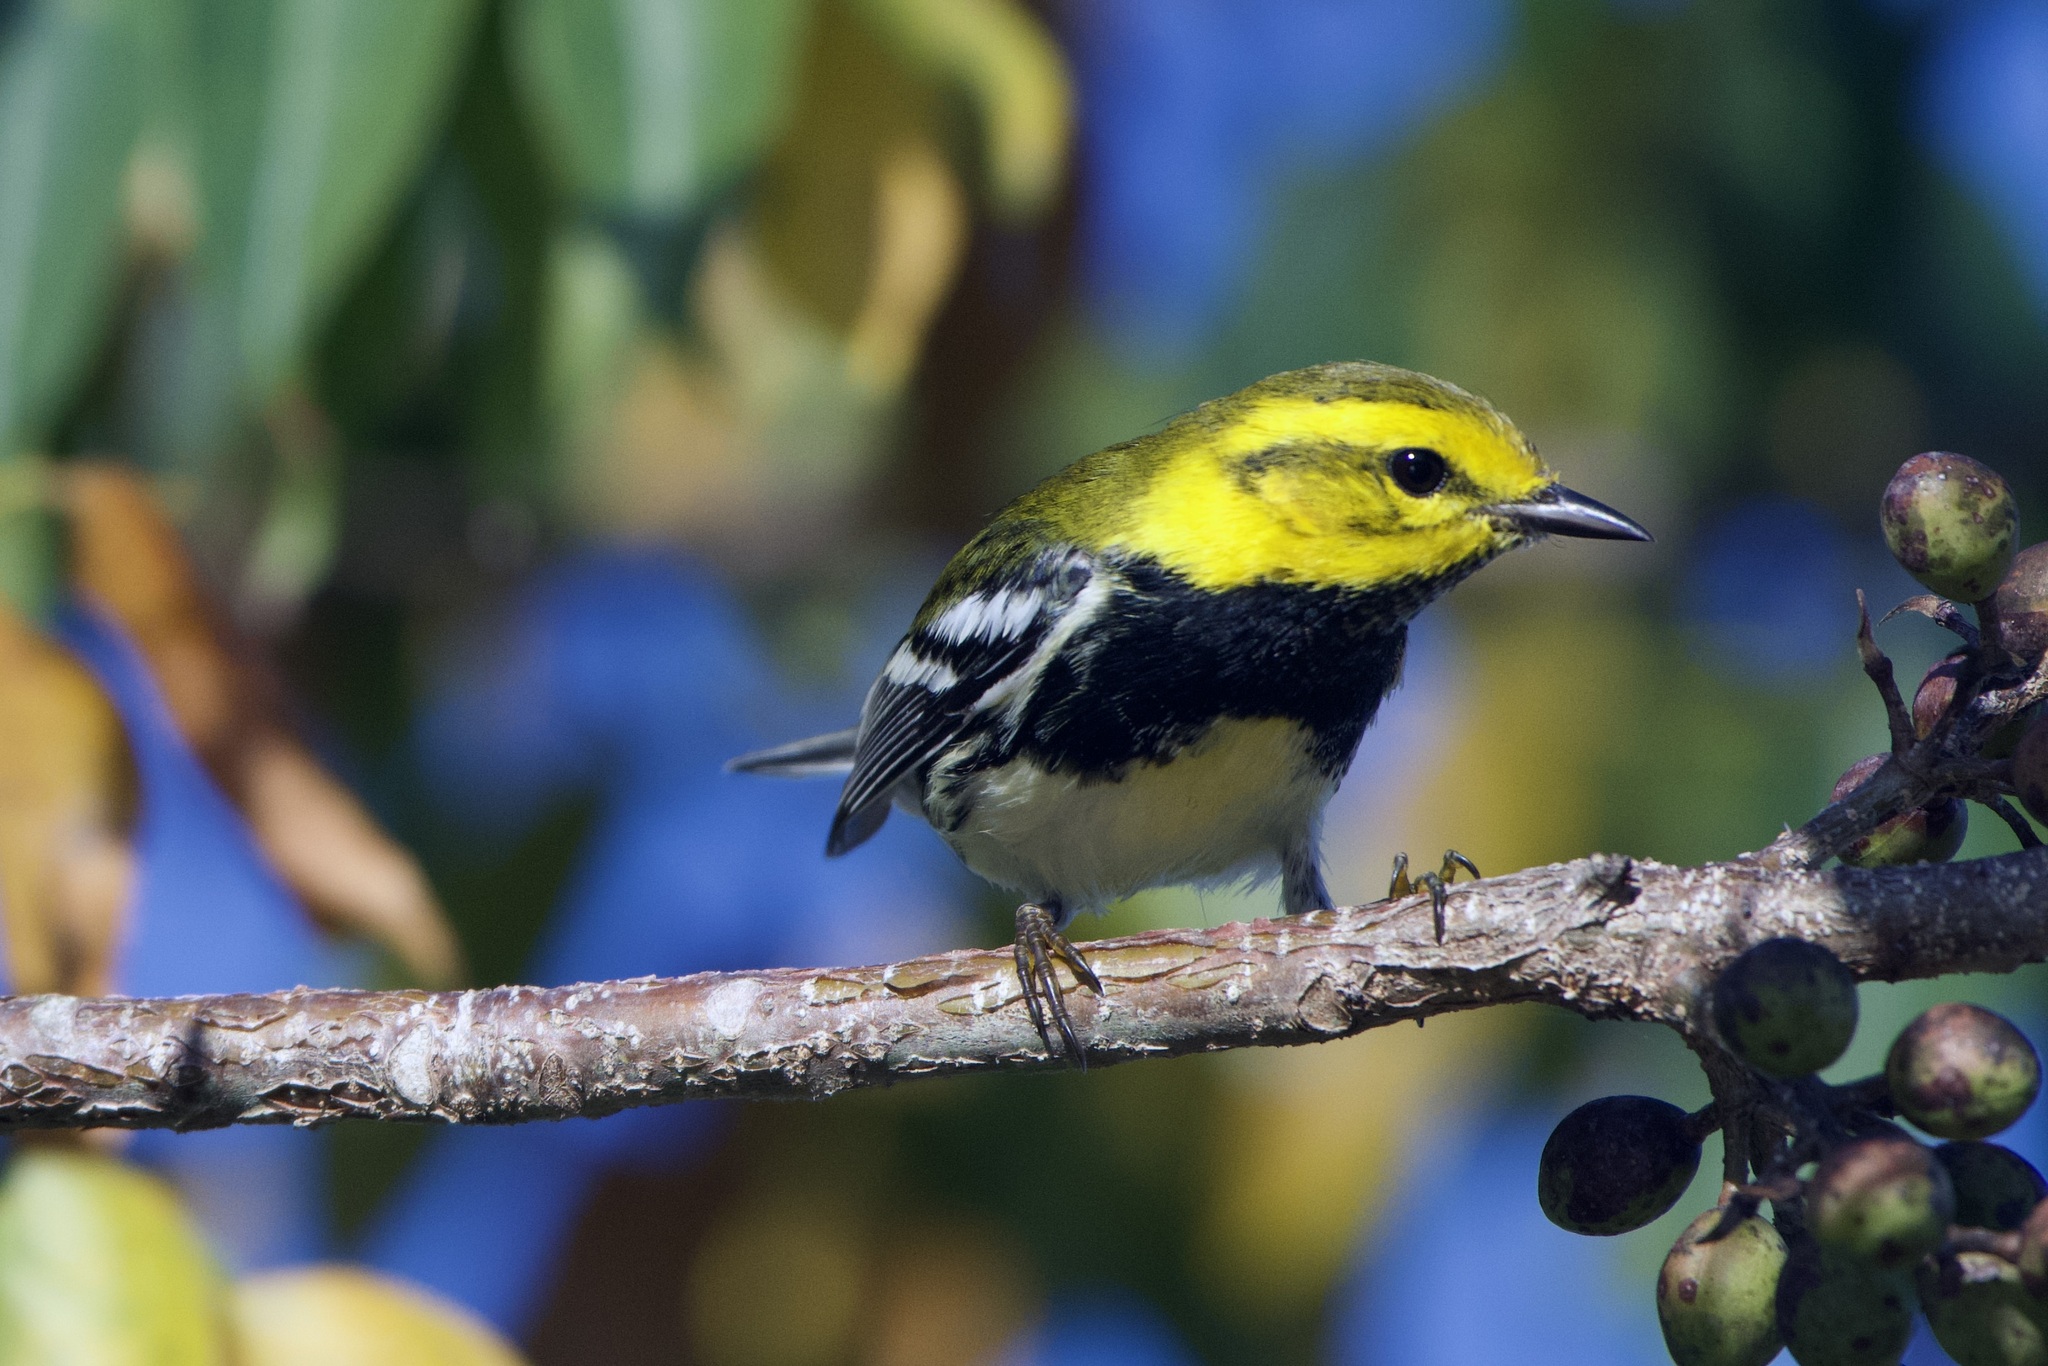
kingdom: Animalia
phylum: Chordata
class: Aves
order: Passeriformes
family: Parulidae
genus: Setophaga
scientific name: Setophaga virens
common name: Black-throated green warbler
